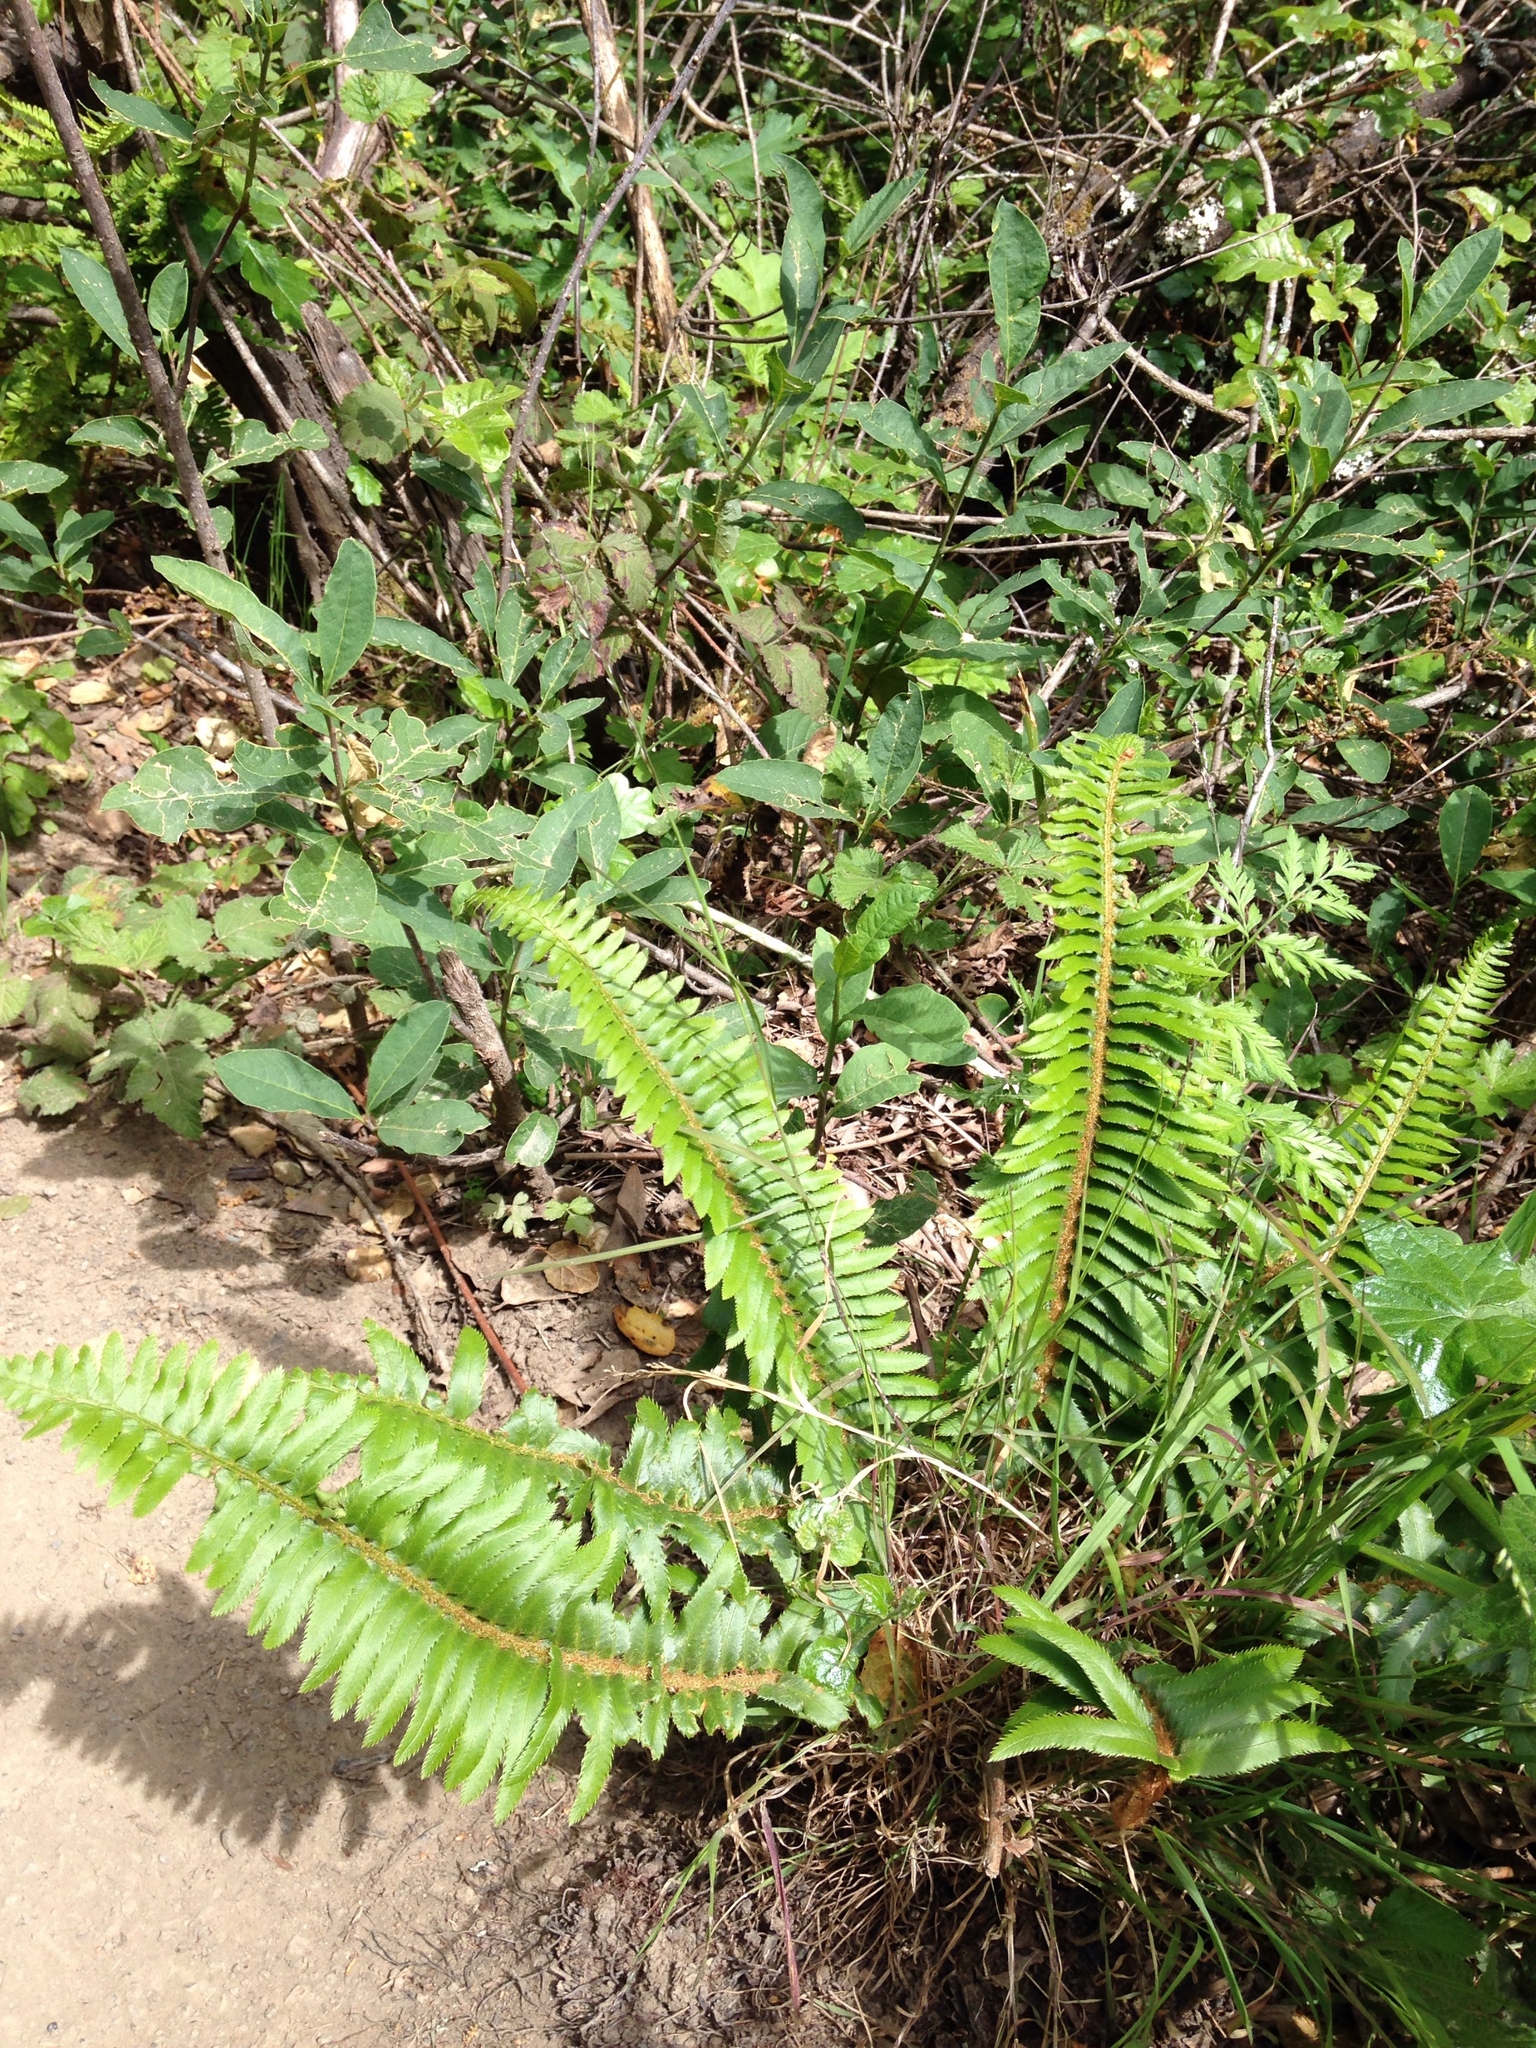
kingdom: Plantae
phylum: Tracheophyta
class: Polypodiopsida
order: Polypodiales
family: Dryopteridaceae
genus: Polystichum
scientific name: Polystichum munitum
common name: Western sword-fern
